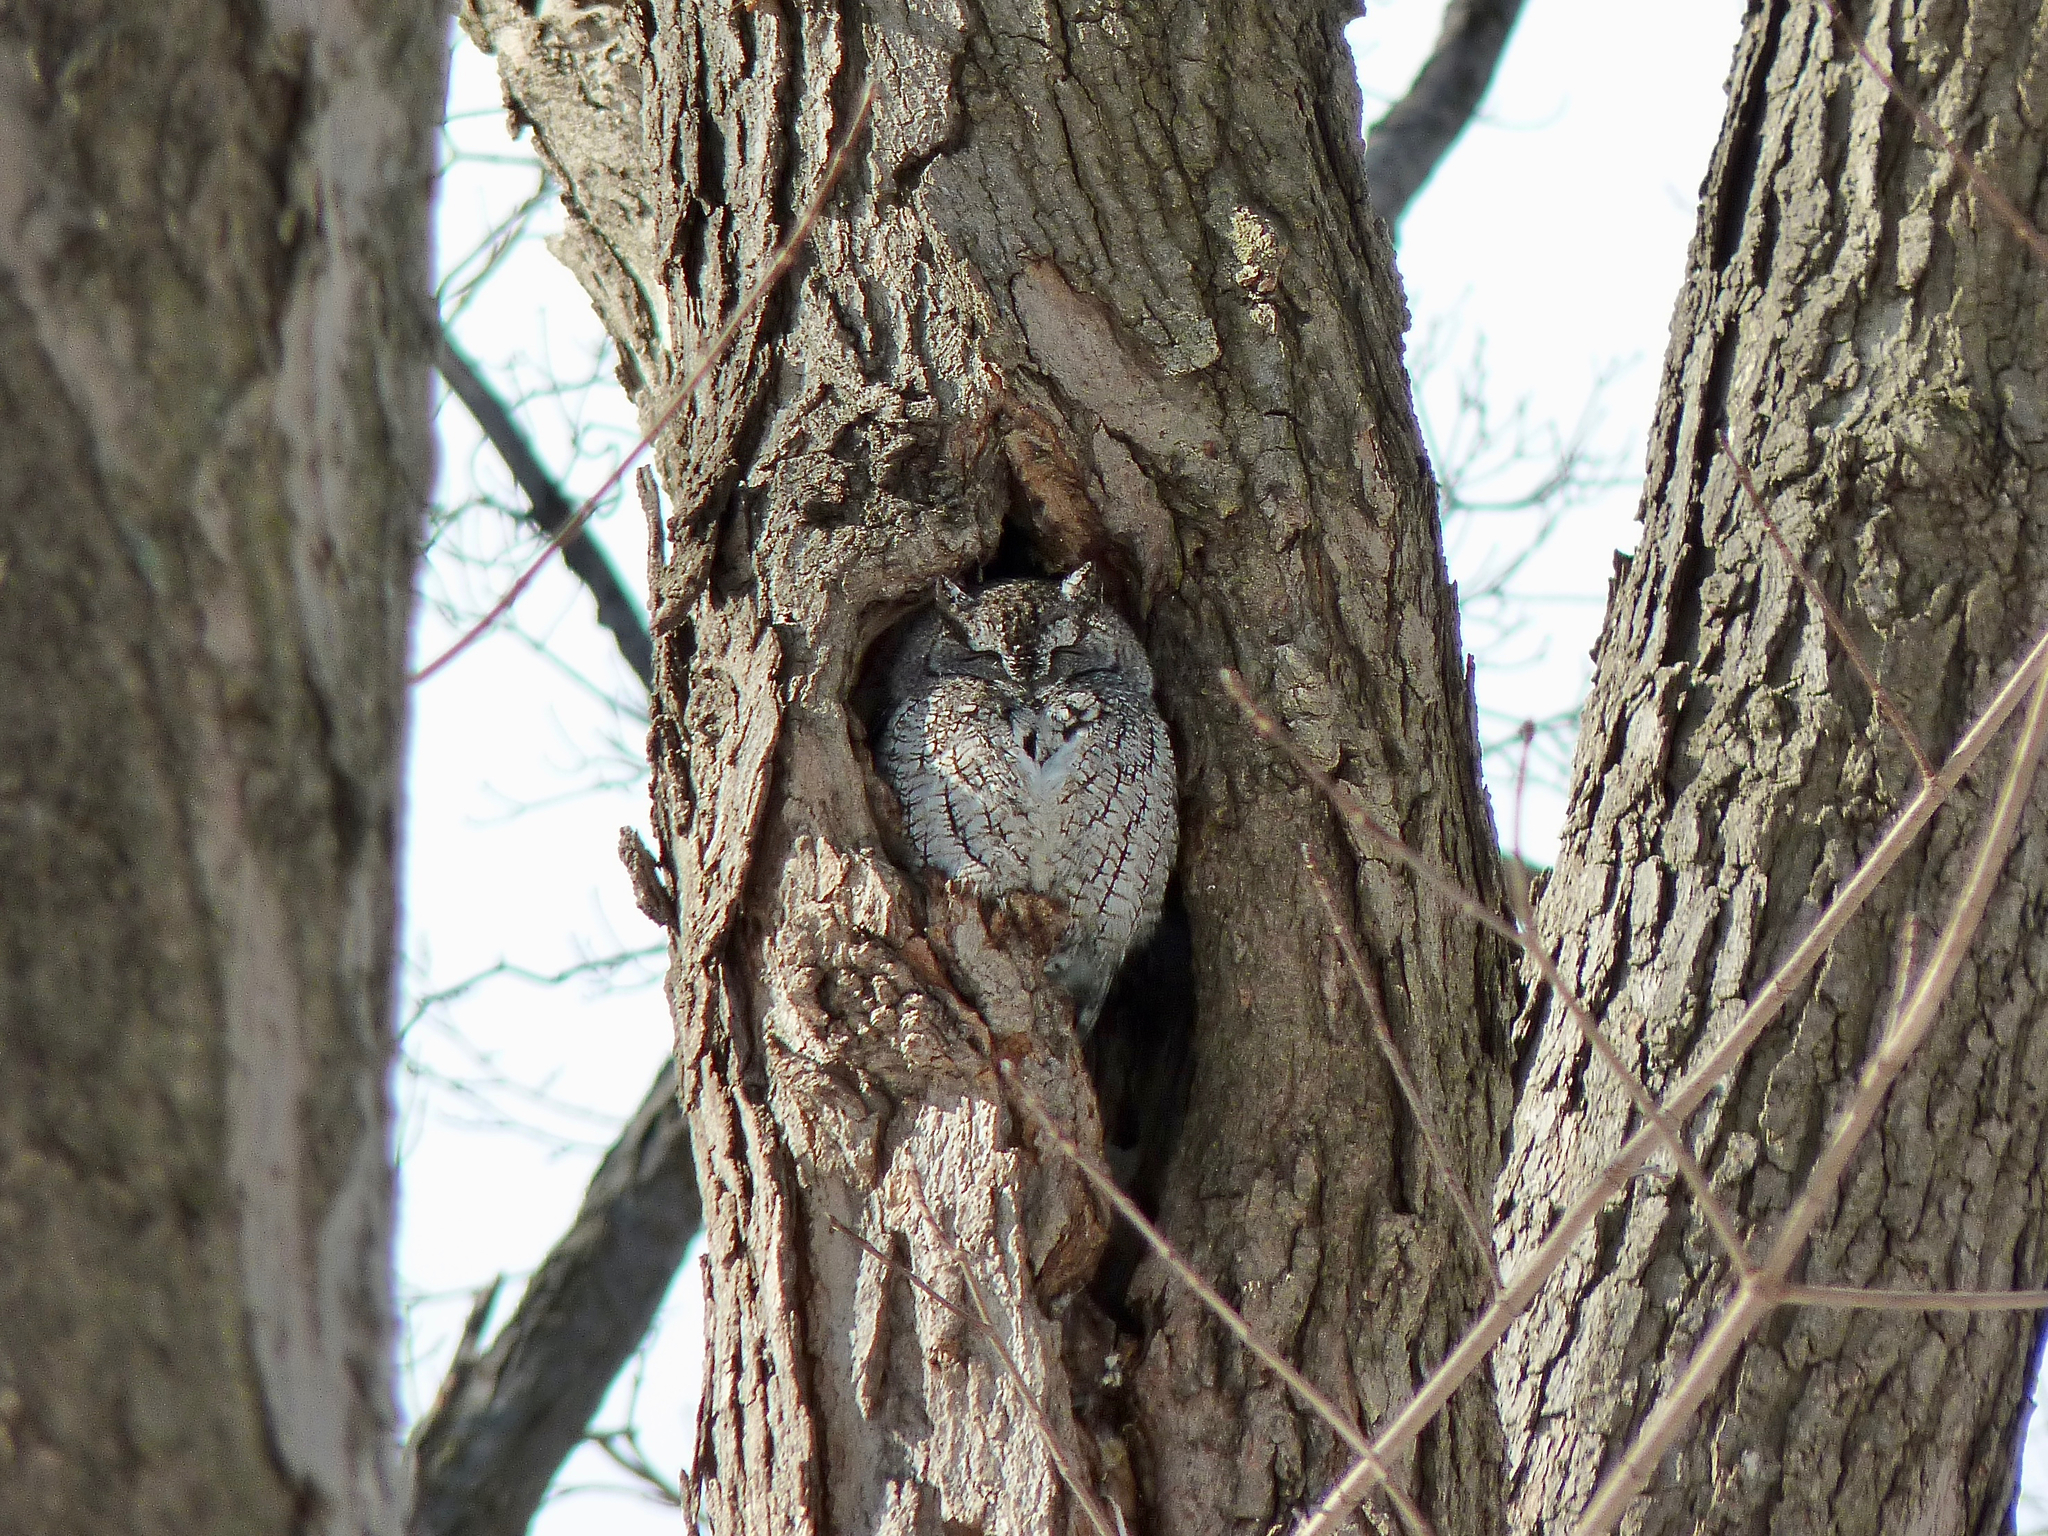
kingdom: Animalia
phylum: Chordata
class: Aves
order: Strigiformes
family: Strigidae
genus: Megascops
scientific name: Megascops asio
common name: Eastern screech-owl
